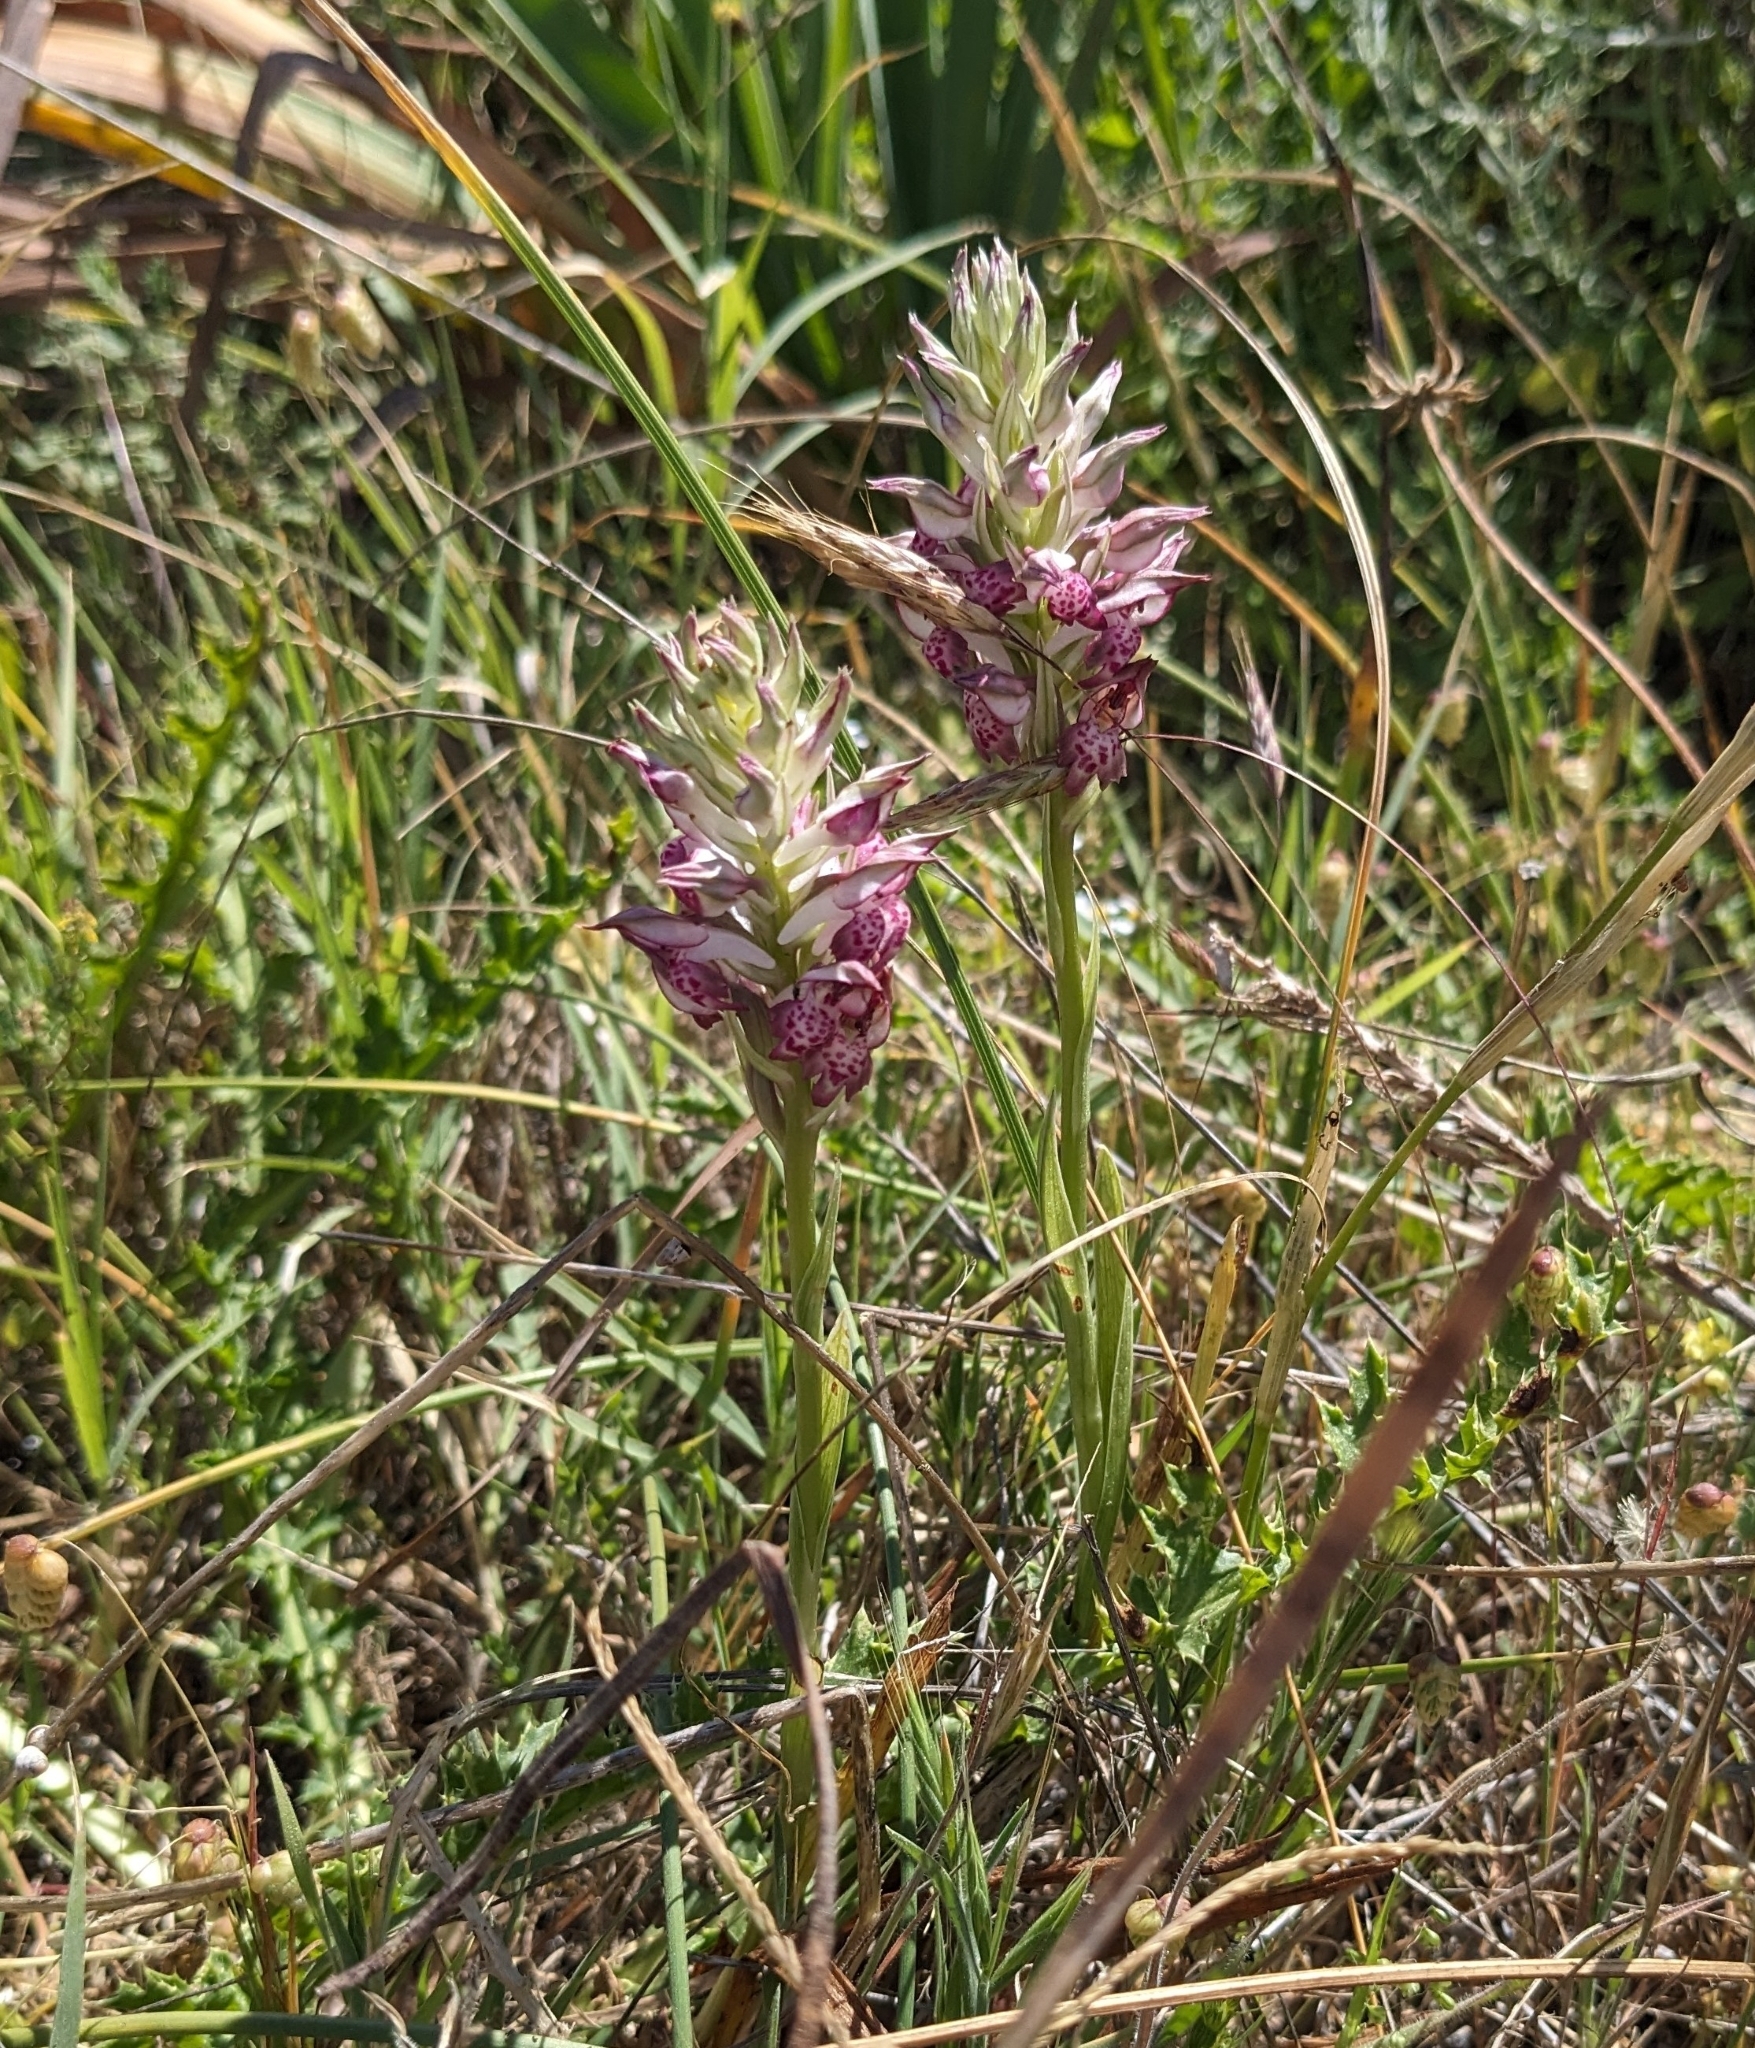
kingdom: Plantae
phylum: Tracheophyta
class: Liliopsida
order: Asparagales
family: Orchidaceae
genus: Anacamptis
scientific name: Anacamptis coriophora
